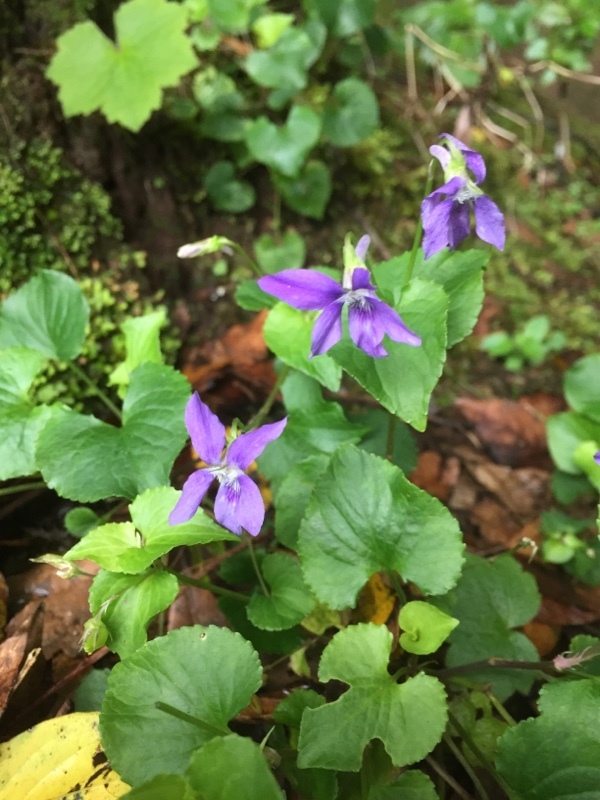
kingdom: Plantae
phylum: Tracheophyta
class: Magnoliopsida
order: Malpighiales
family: Violaceae
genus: Viola
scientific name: Viola odorata
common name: Sweet violet
